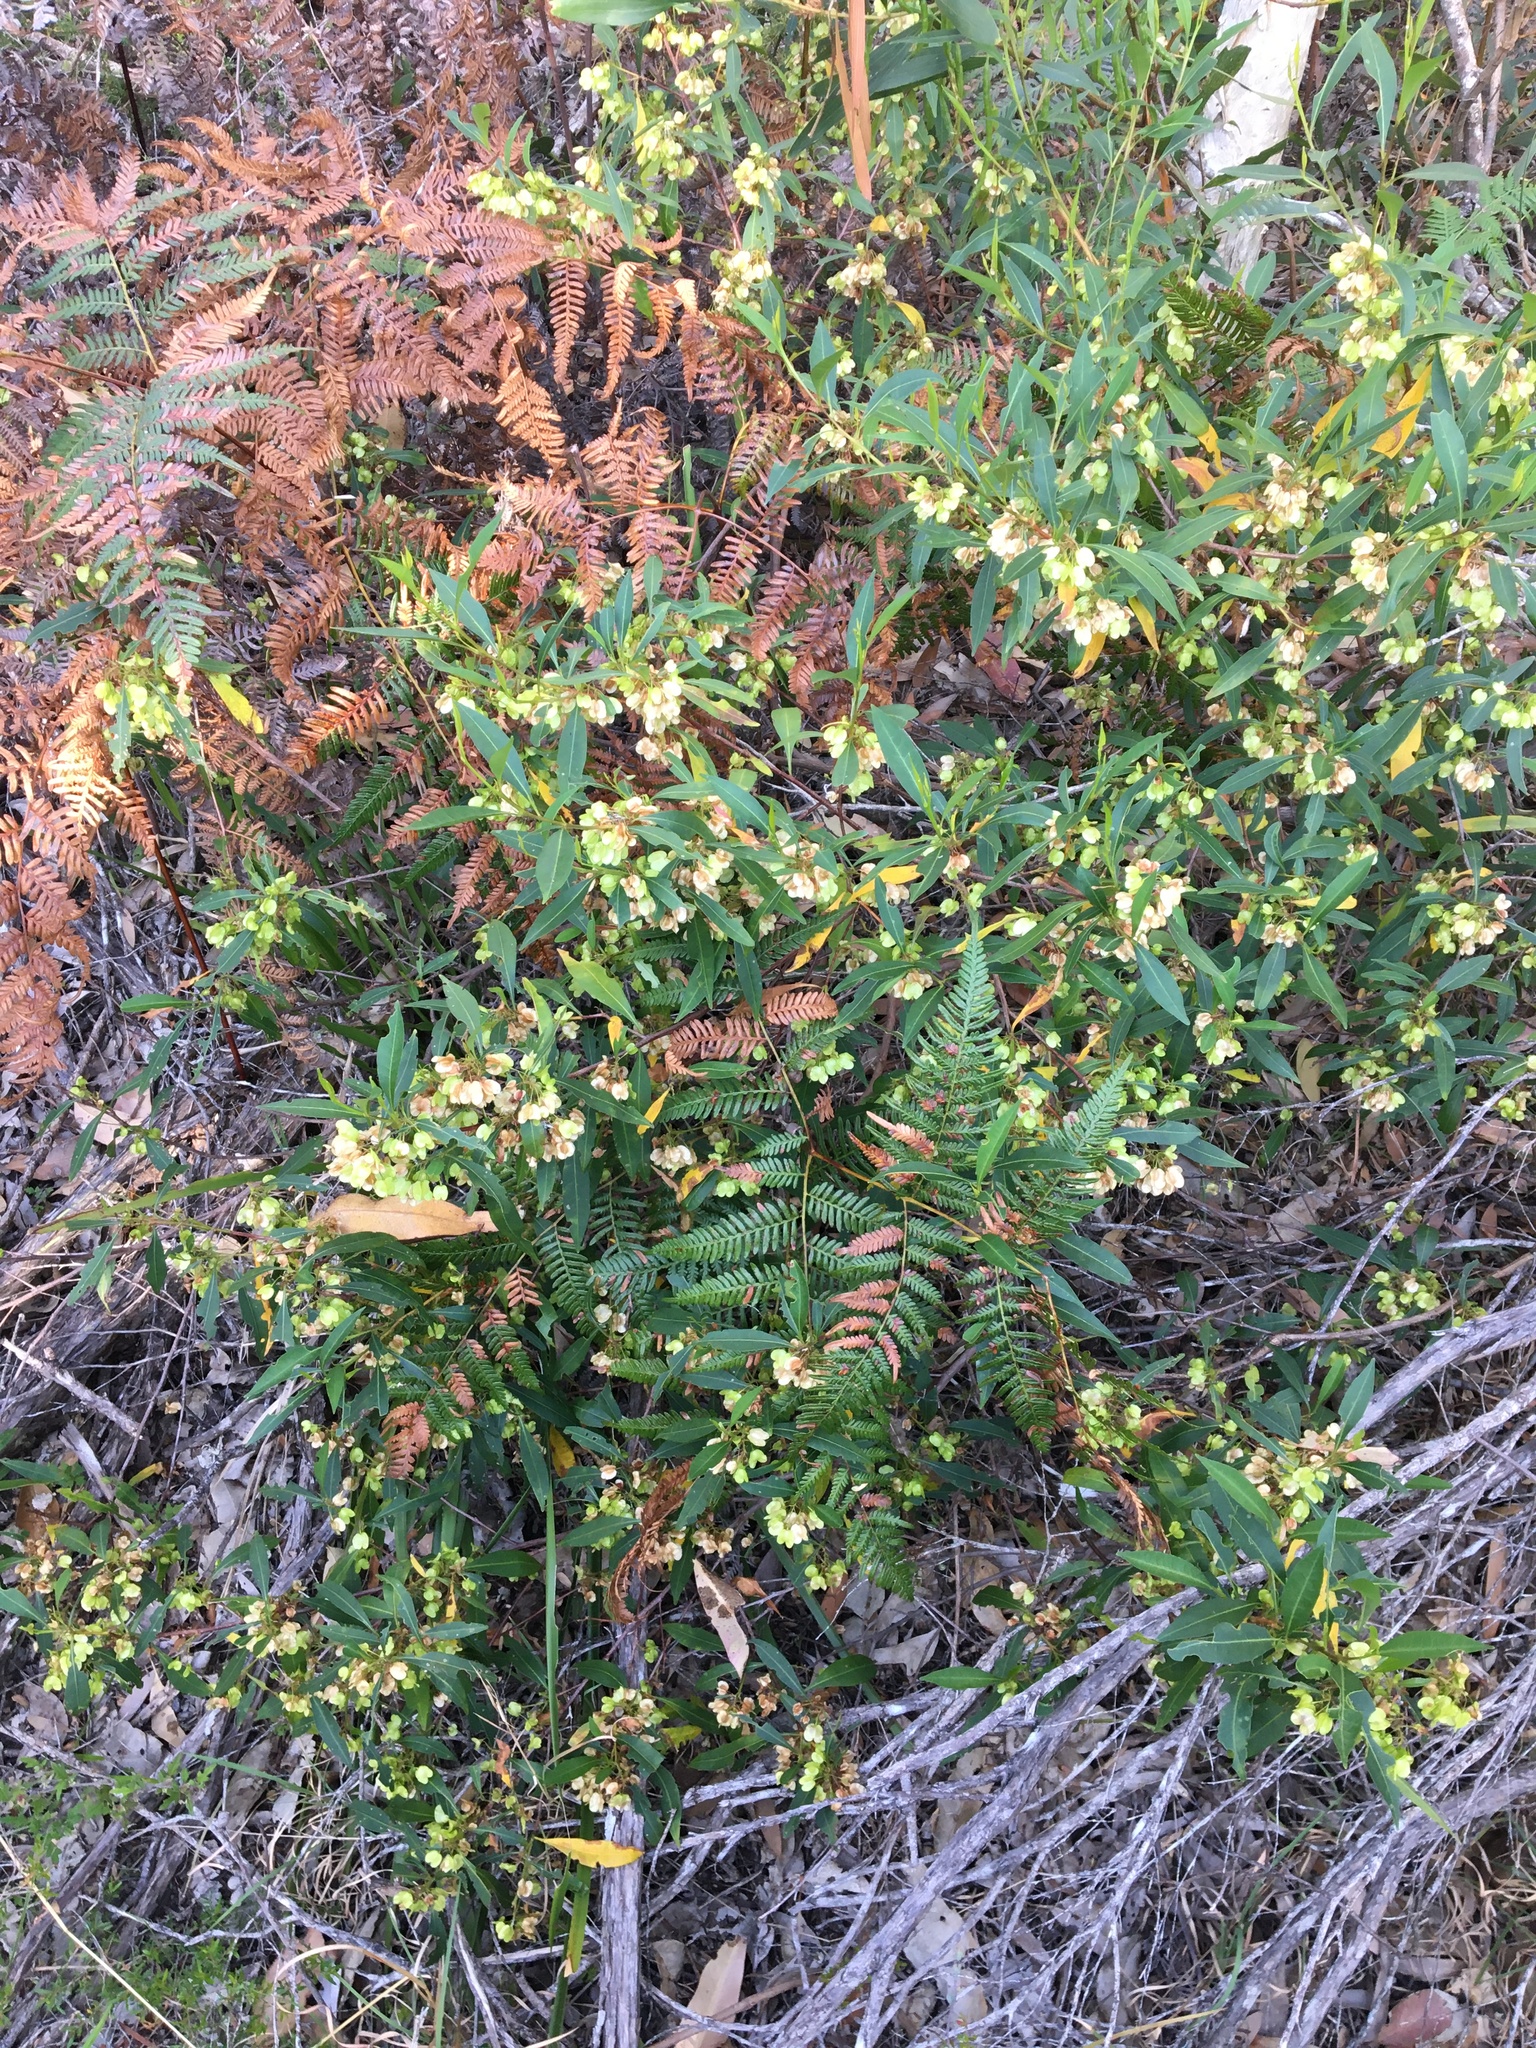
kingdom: Plantae
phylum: Tracheophyta
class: Magnoliopsida
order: Sapindales
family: Sapindaceae
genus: Dodonaea
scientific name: Dodonaea triquetra
